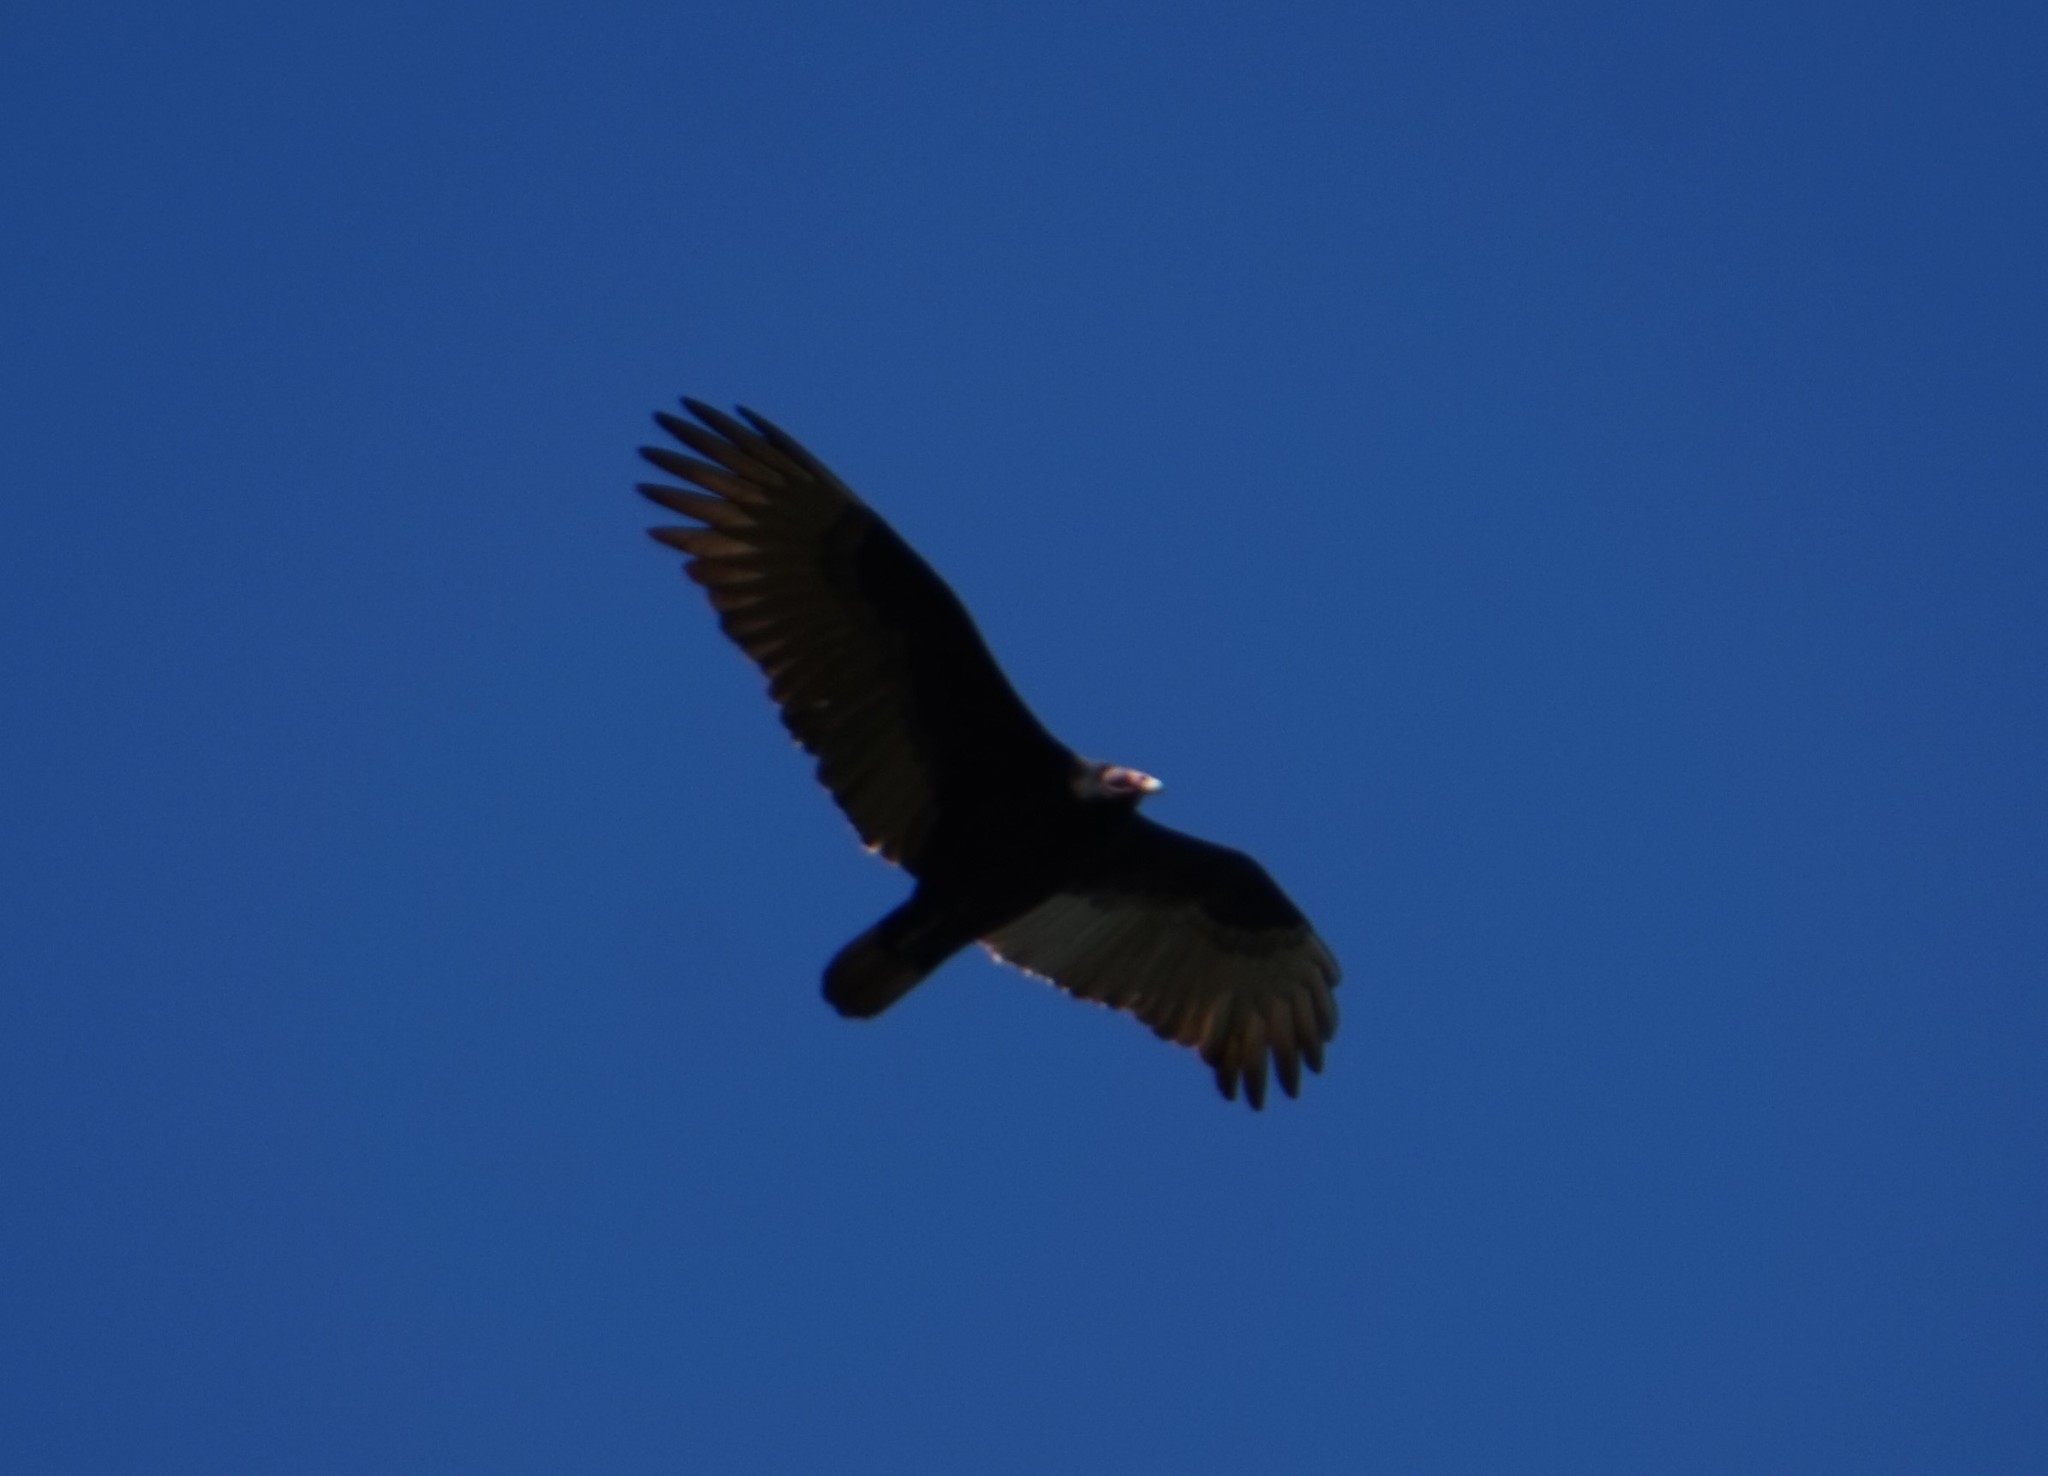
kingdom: Animalia
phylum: Chordata
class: Aves
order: Accipitriformes
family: Cathartidae
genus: Cathartes
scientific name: Cathartes aura
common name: Turkey vulture
